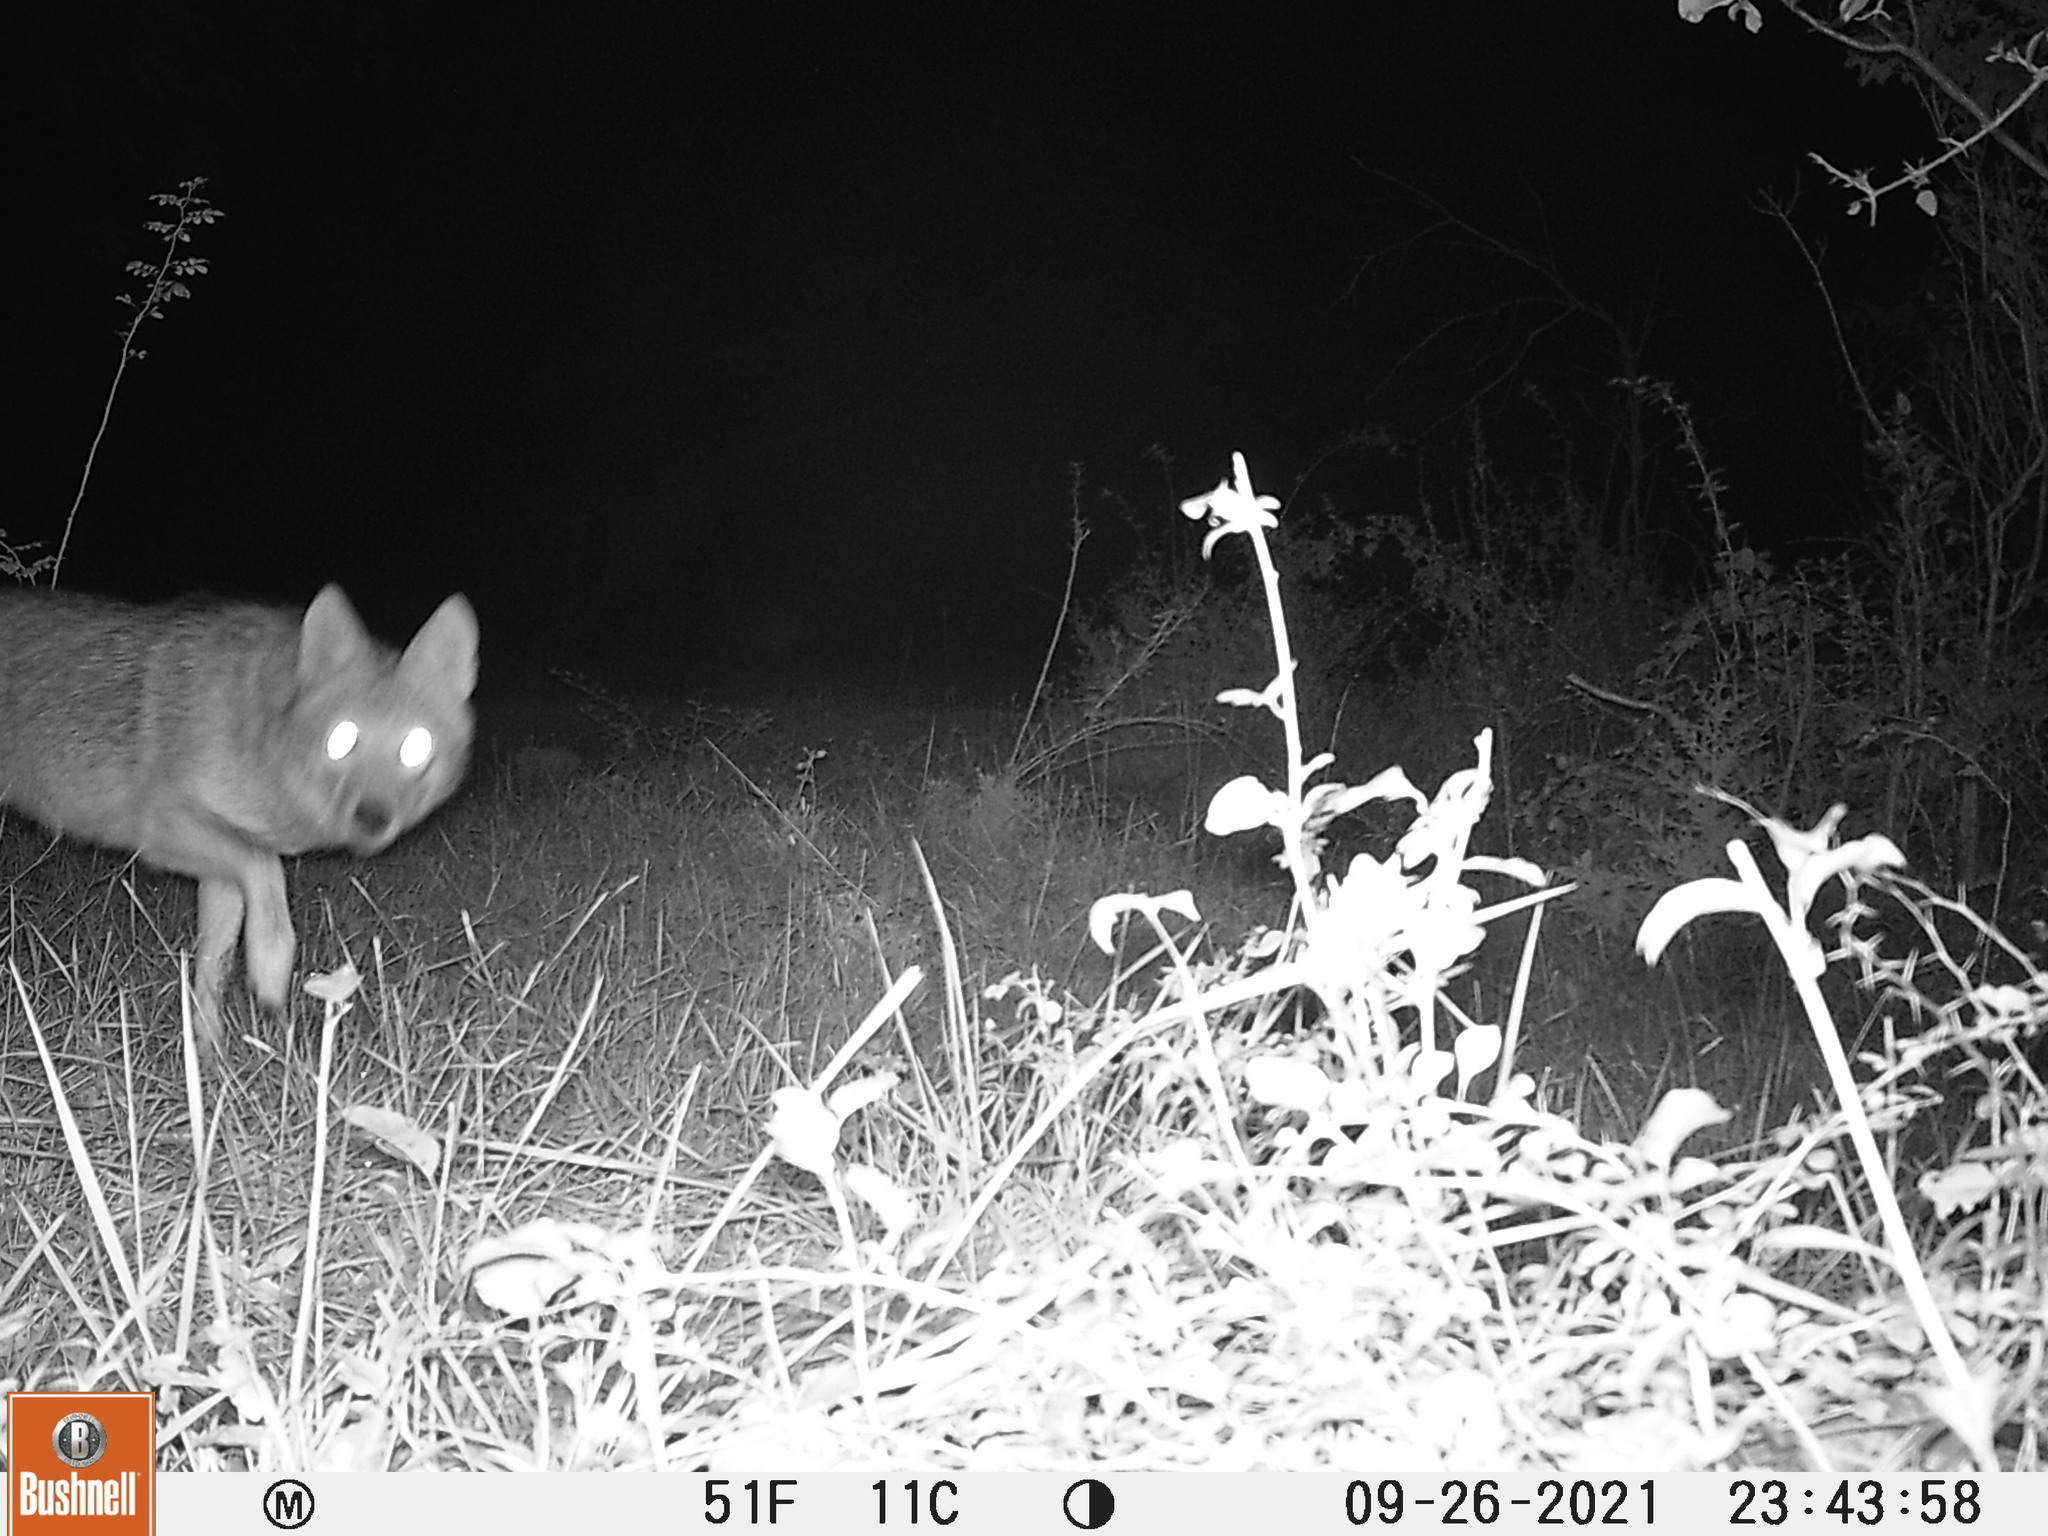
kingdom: Animalia
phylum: Chordata
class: Mammalia
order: Carnivora
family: Canidae
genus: Canis
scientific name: Canis latrans
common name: Coyote
